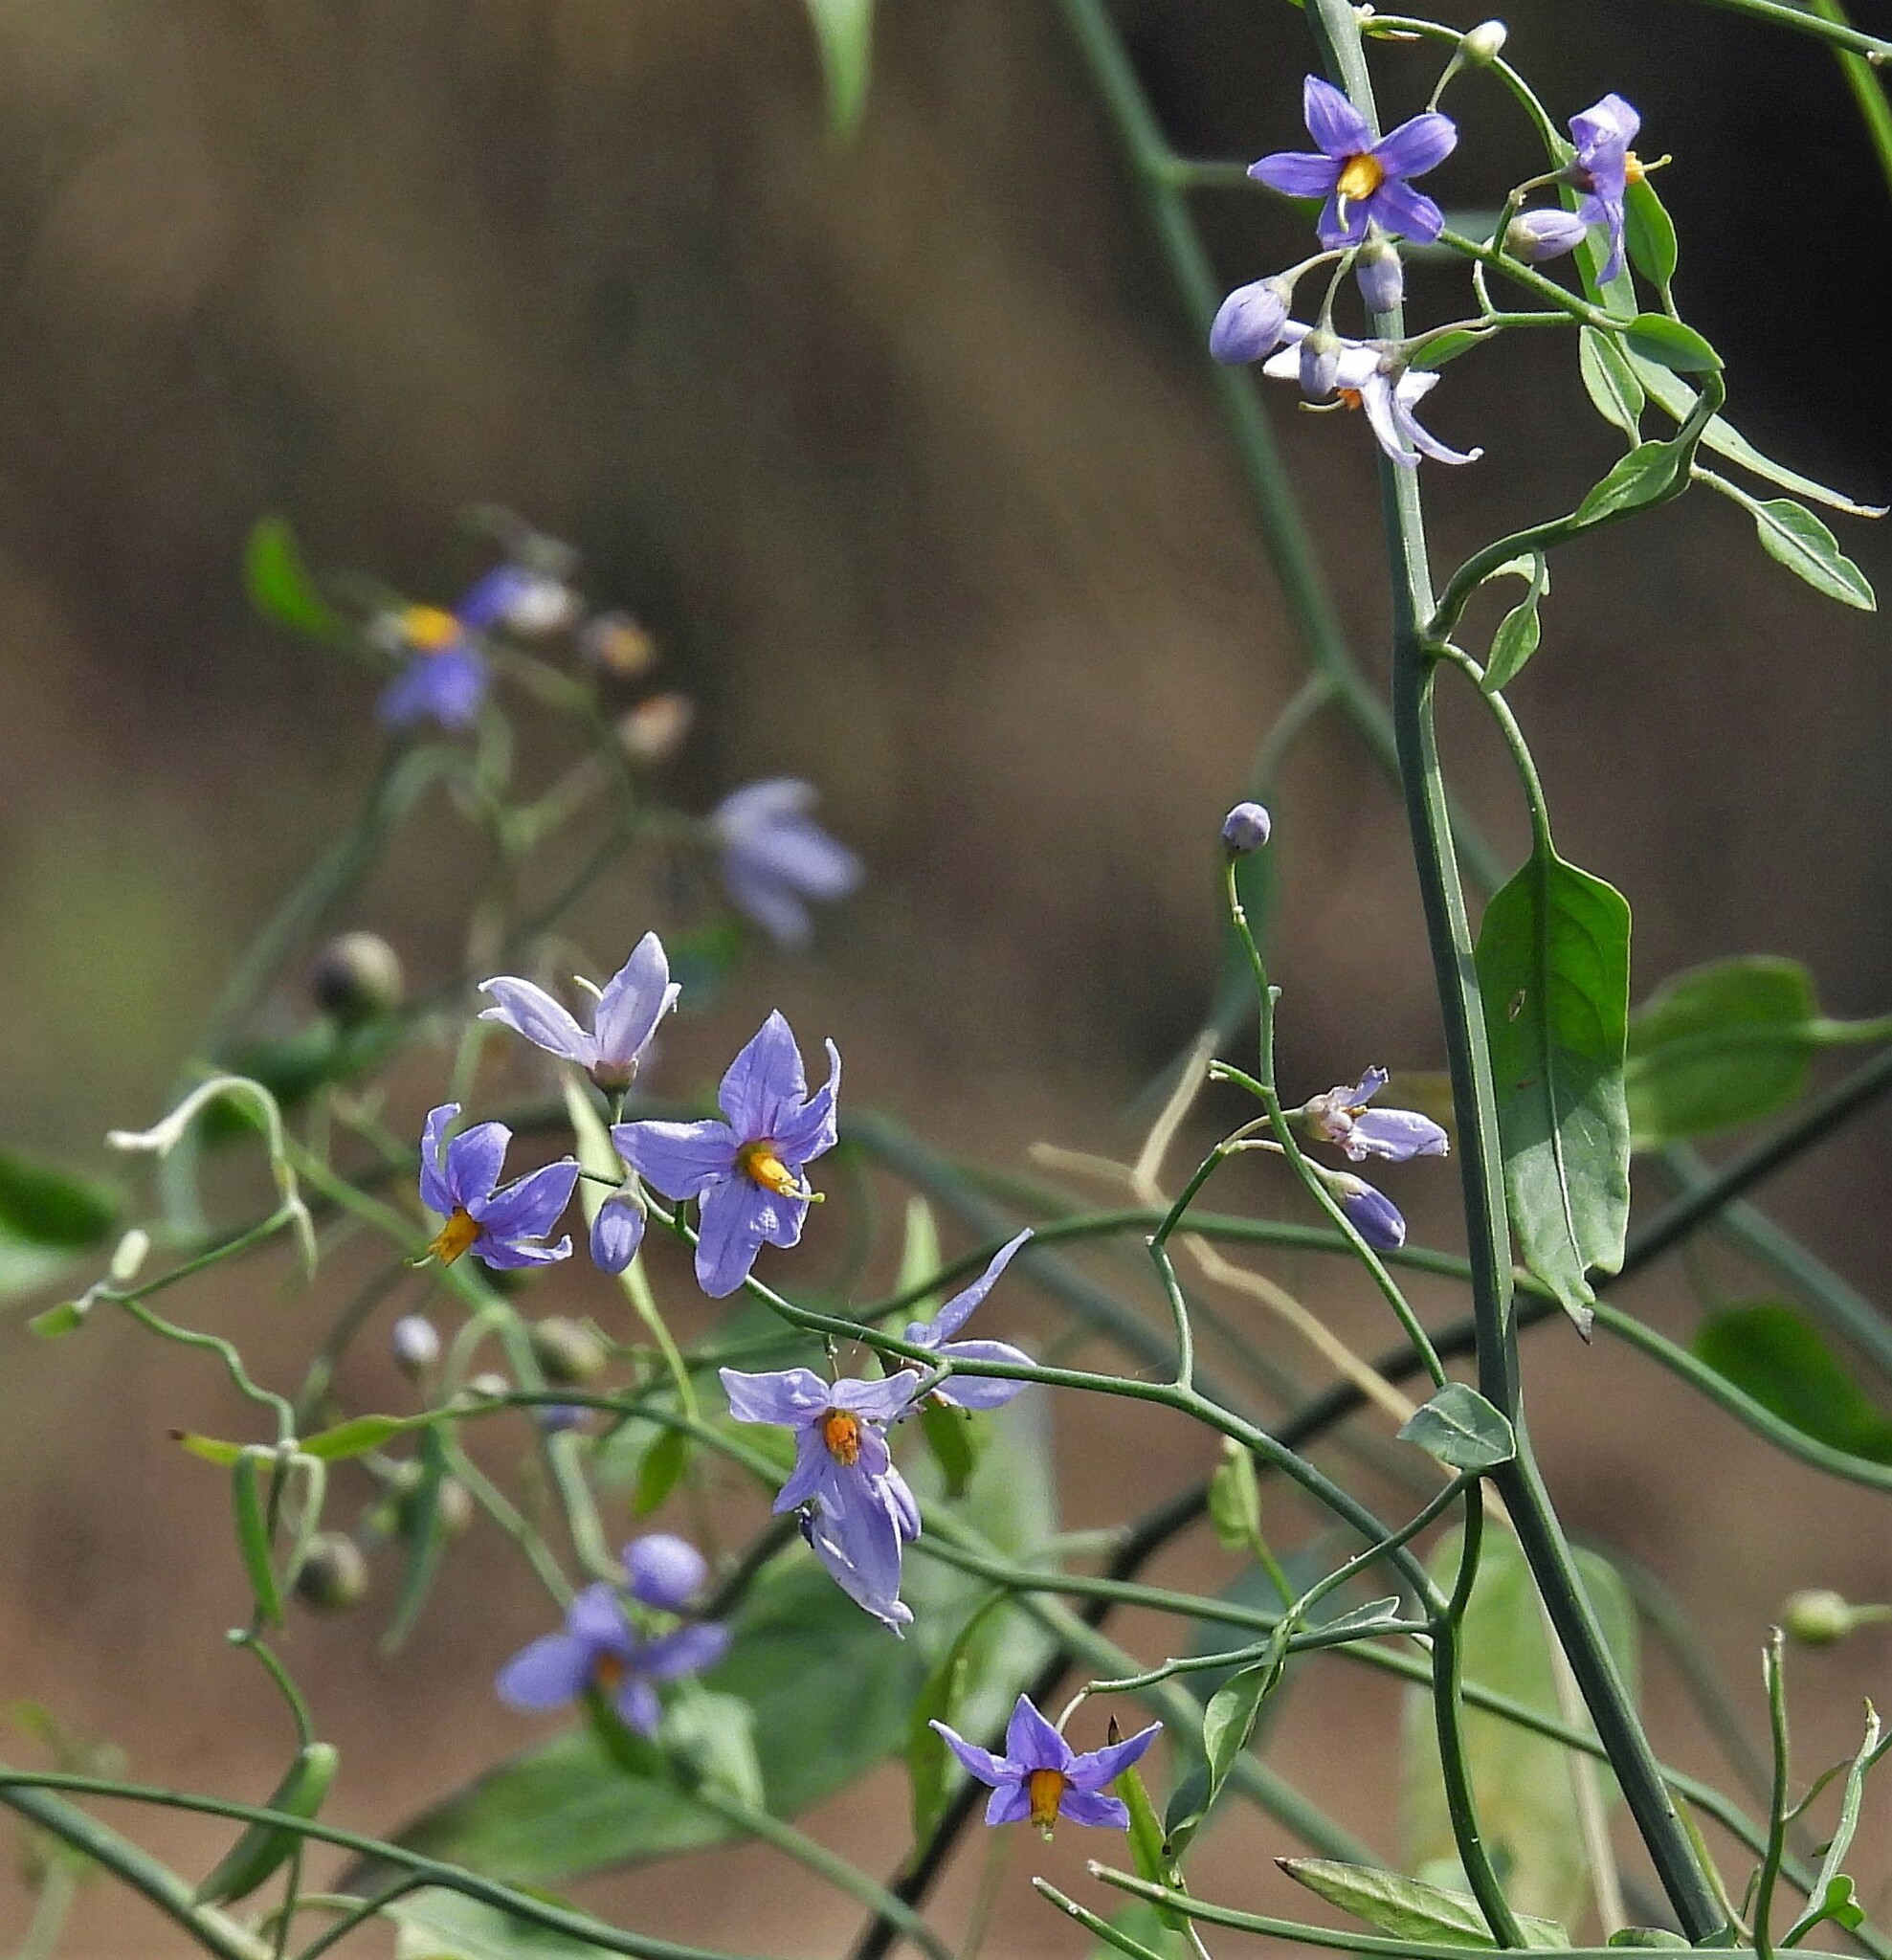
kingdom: Plantae
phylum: Tracheophyta
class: Magnoliopsida
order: Solanales
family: Solanaceae
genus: Solanum
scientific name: Solanum amygdalifolium
